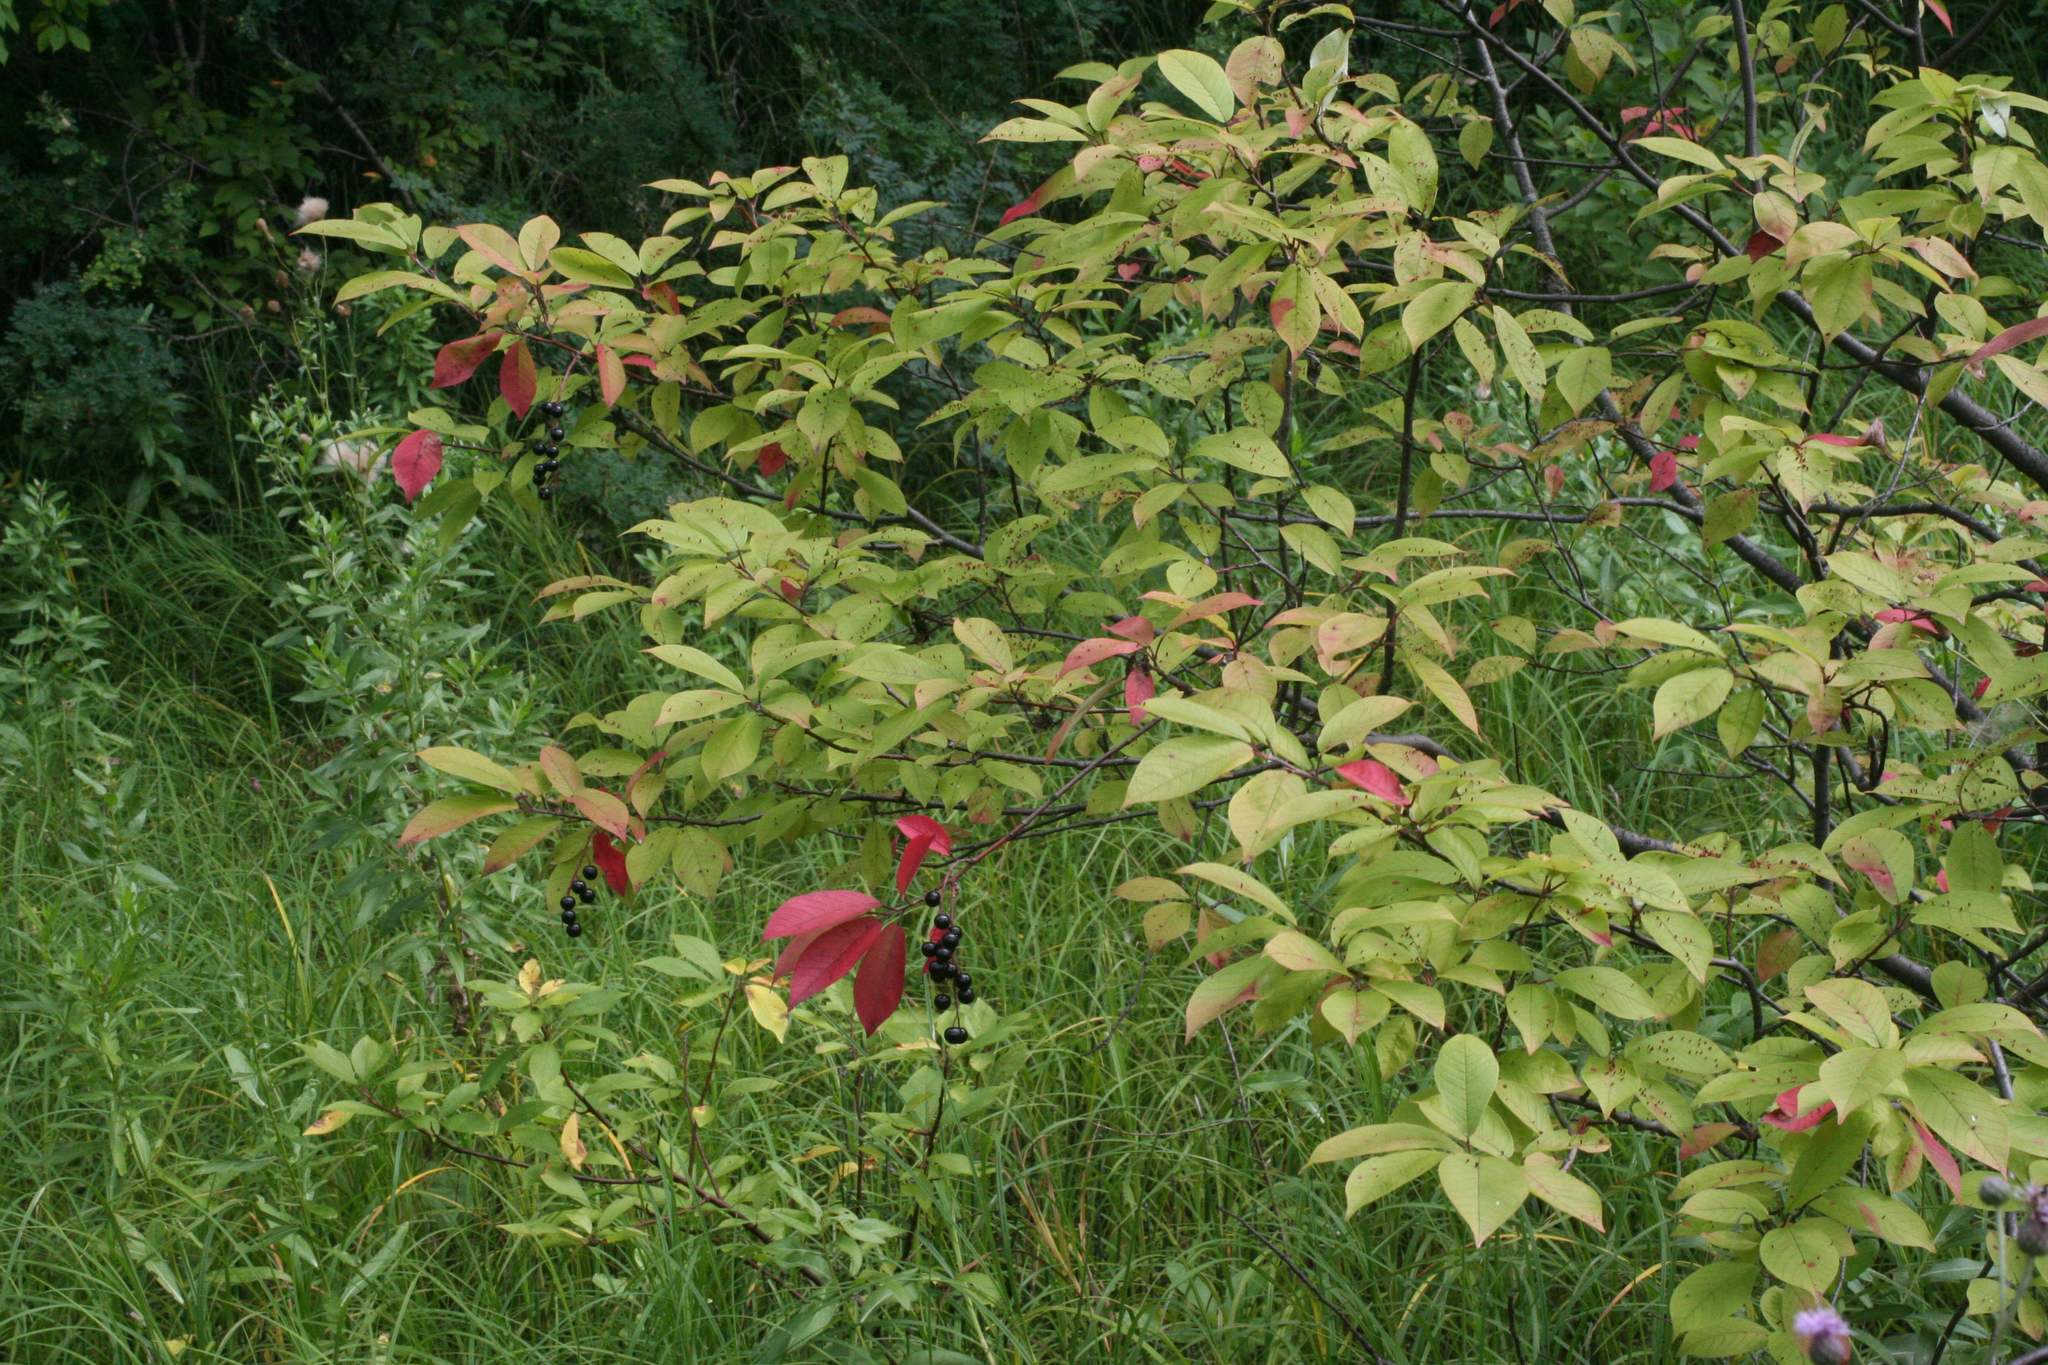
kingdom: Plantae
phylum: Tracheophyta
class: Magnoliopsida
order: Rosales
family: Rosaceae
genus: Prunus
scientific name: Prunus padus
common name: Bird cherry
